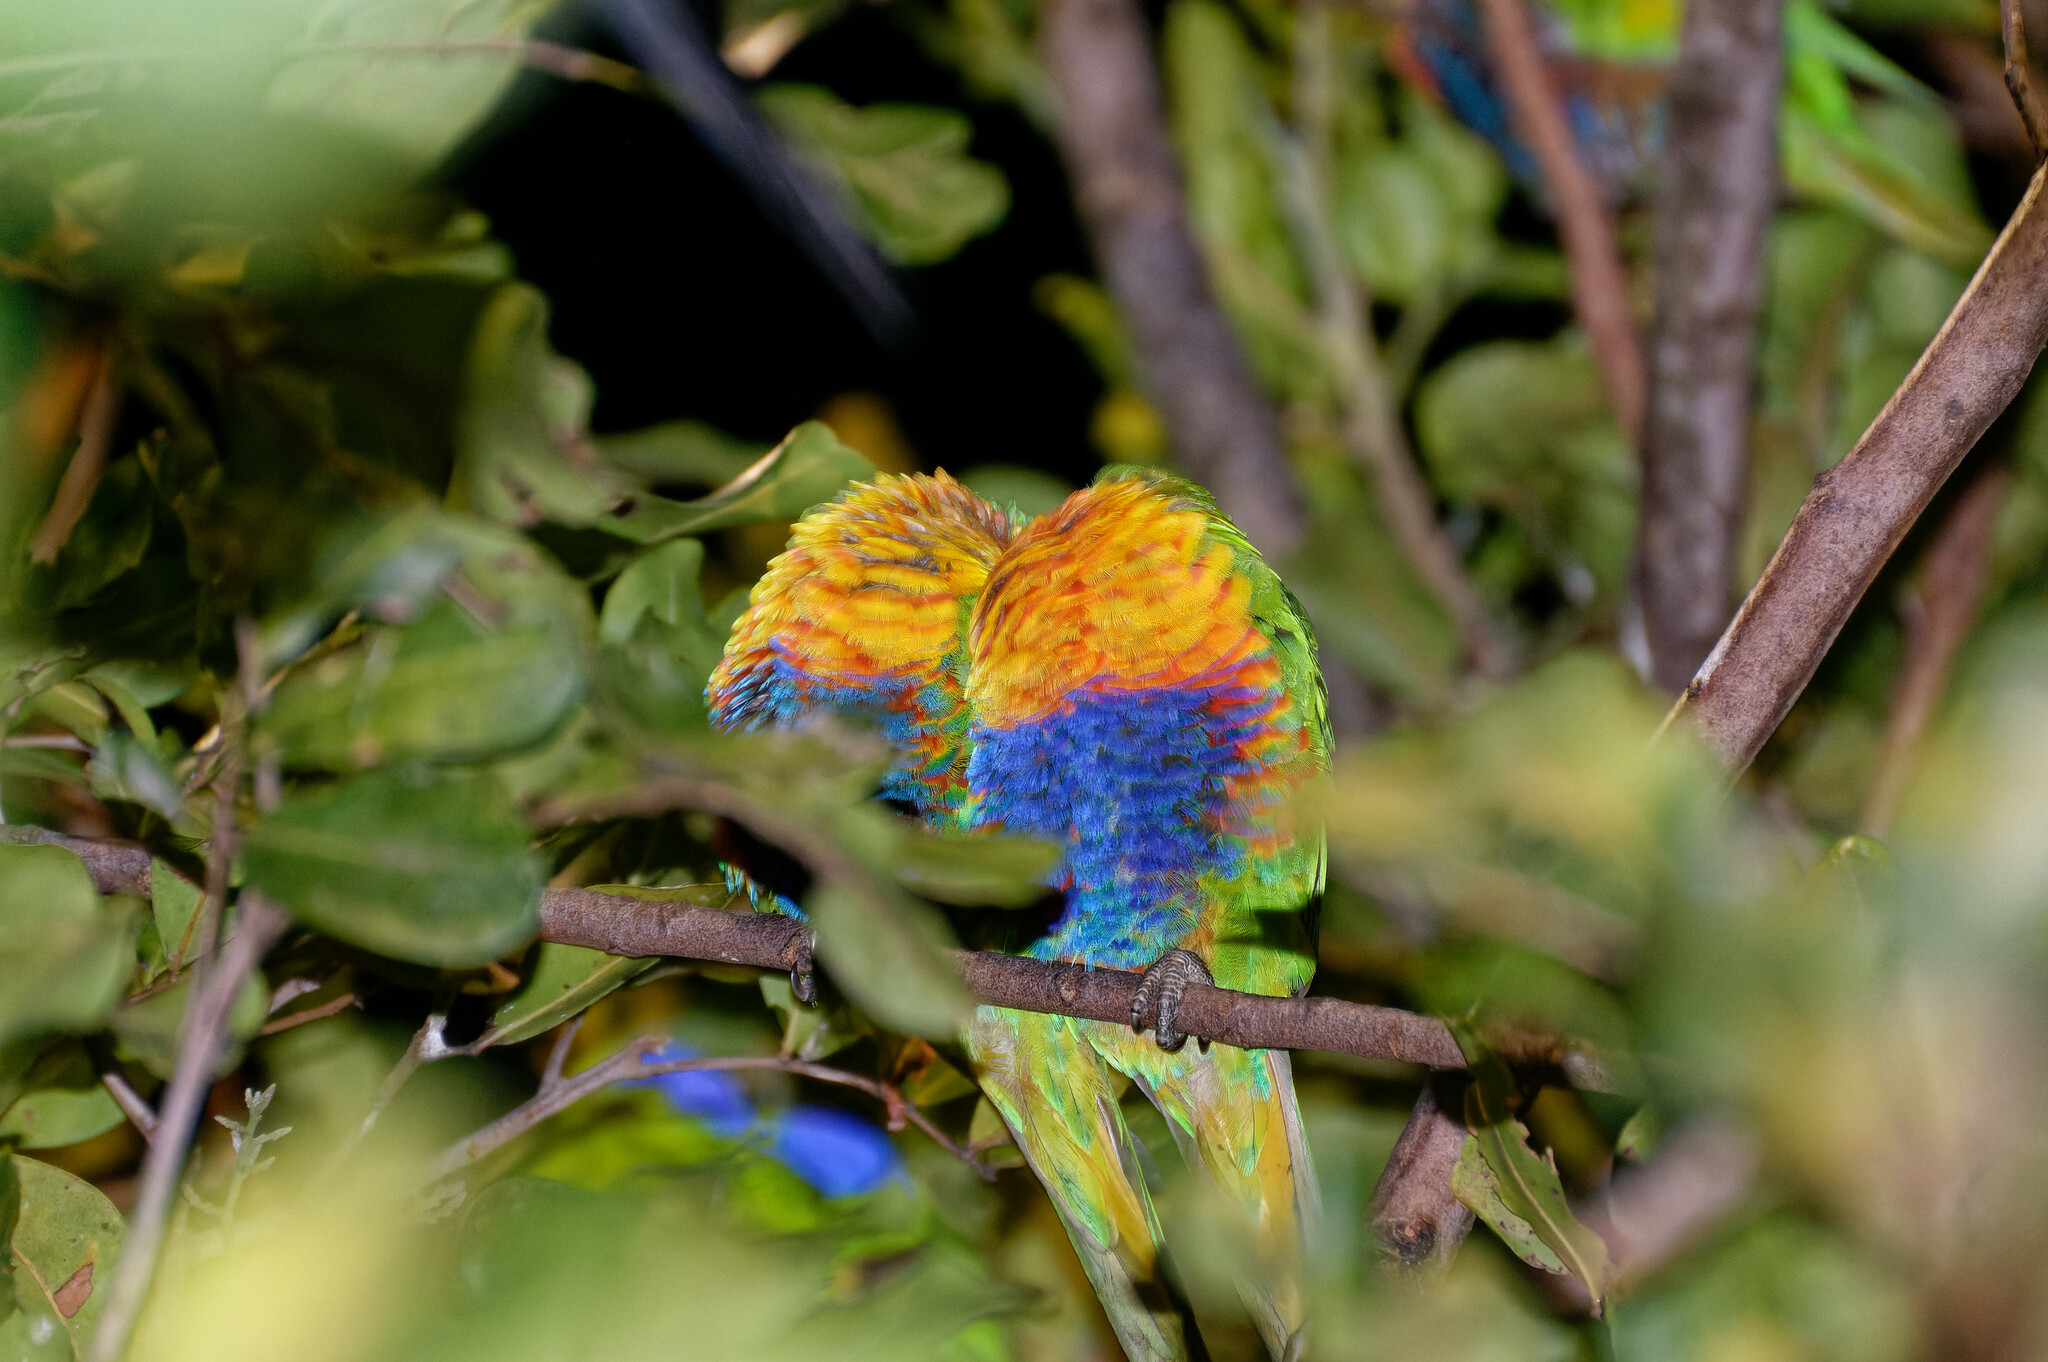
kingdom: Animalia
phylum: Chordata
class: Aves
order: Psittaciformes
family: Psittacidae
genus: Trichoglossus
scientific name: Trichoglossus haematodus
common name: Coconut lorikeet
